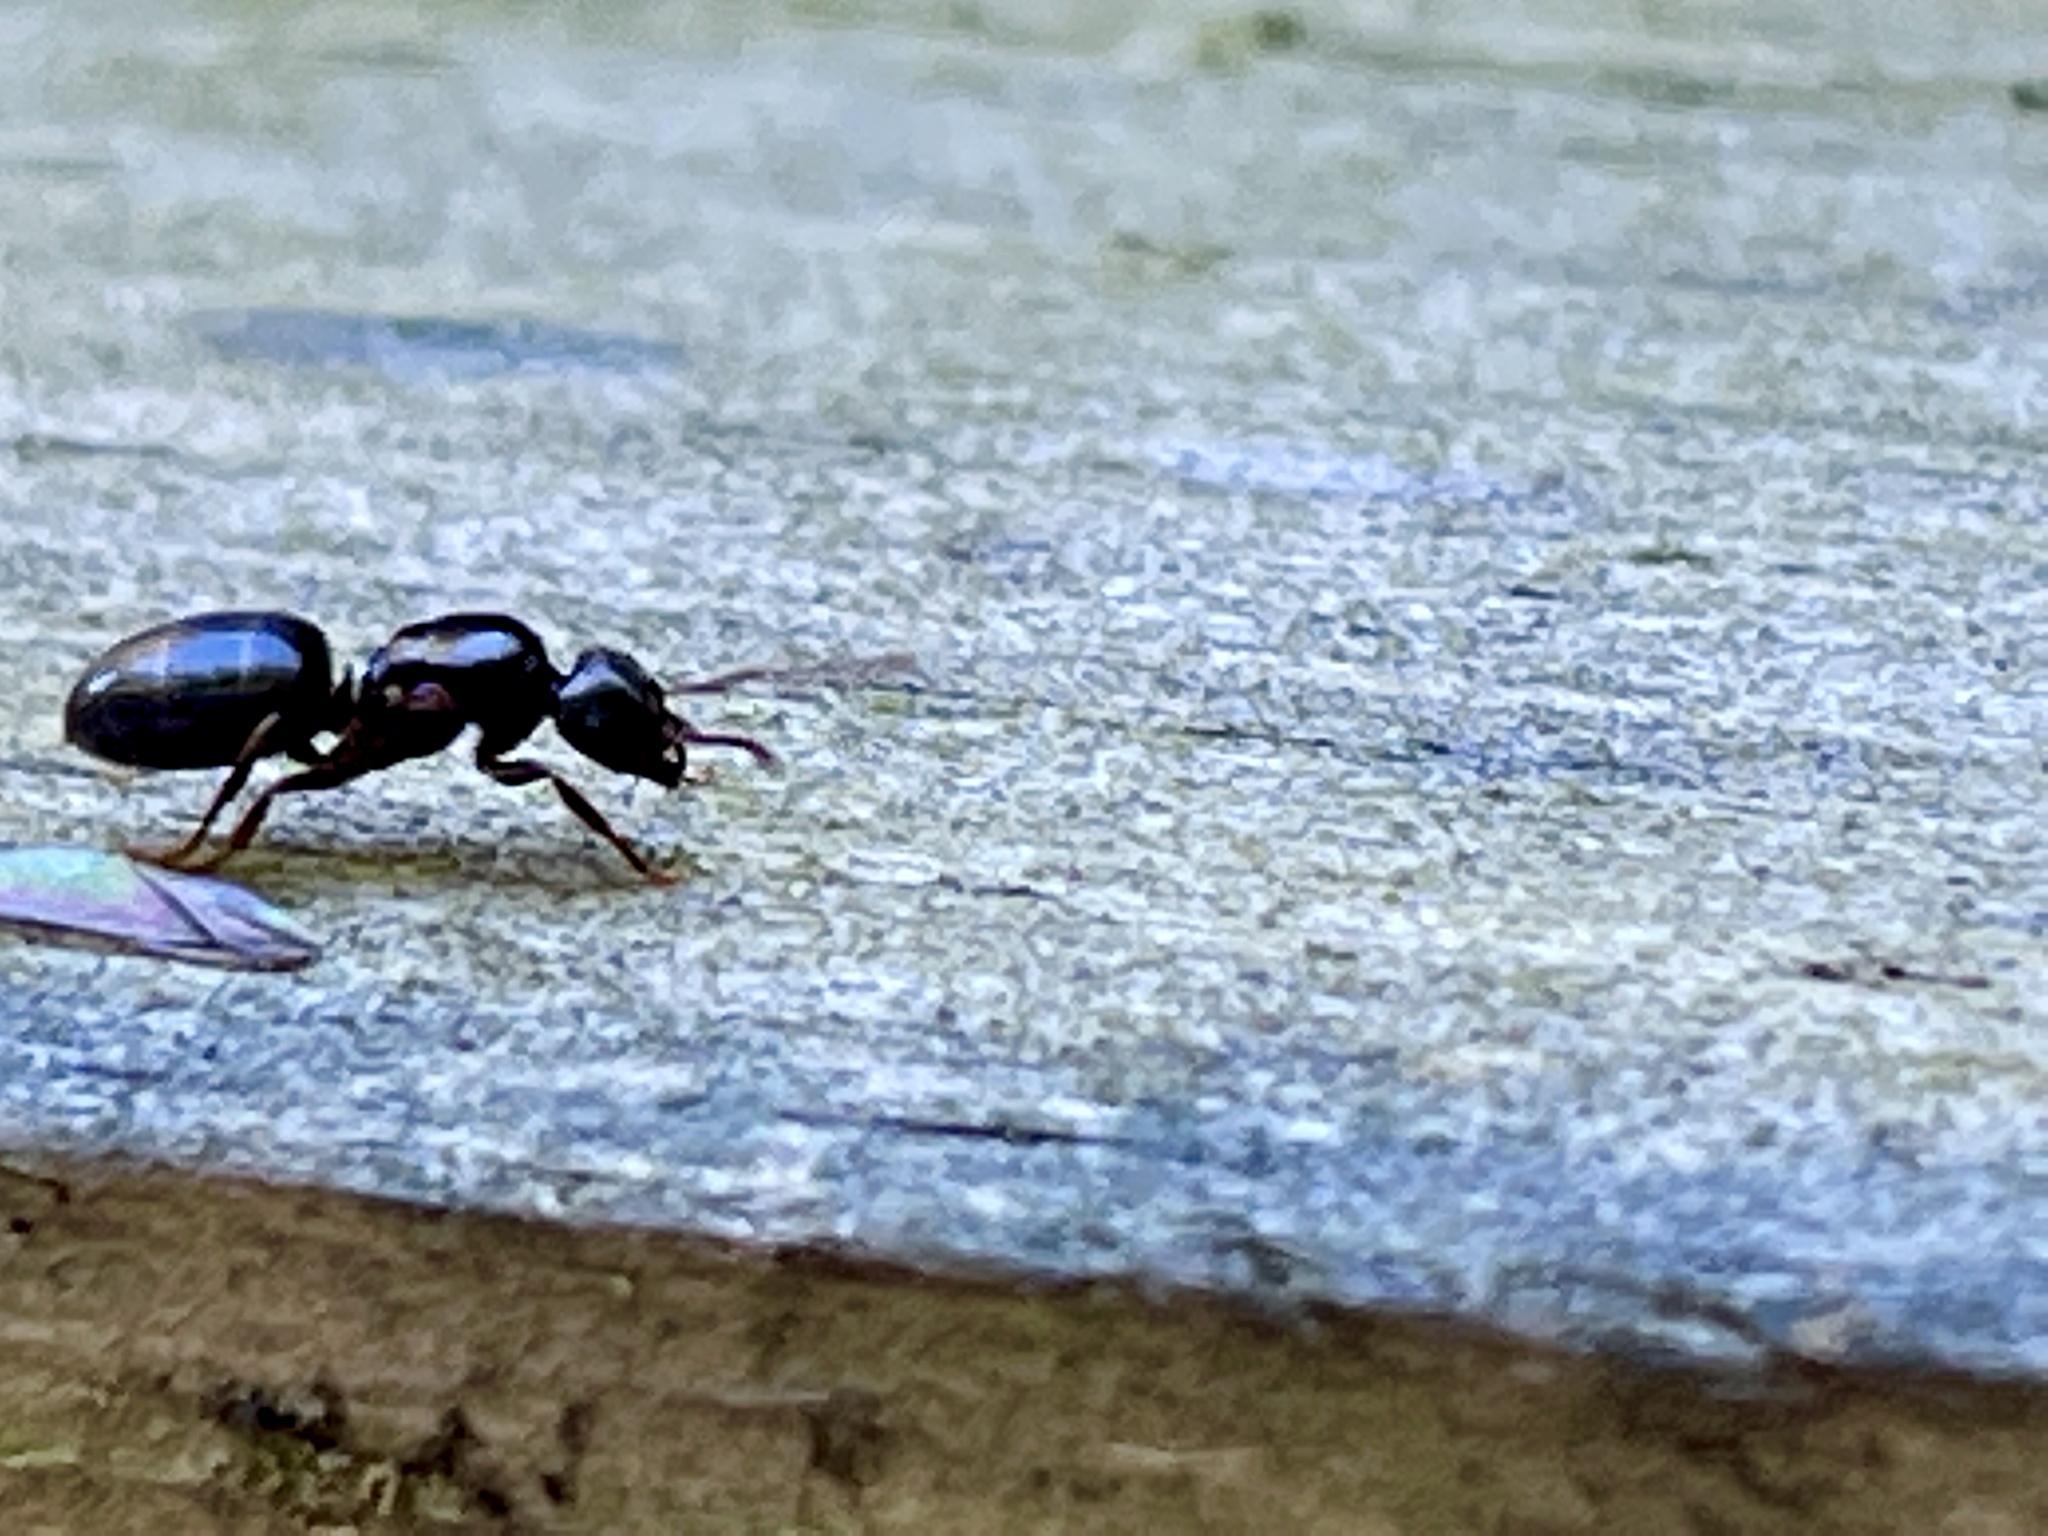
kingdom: Animalia
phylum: Arthropoda
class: Insecta
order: Hymenoptera
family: Formicidae
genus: Lasius
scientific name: Lasius aphidicola
